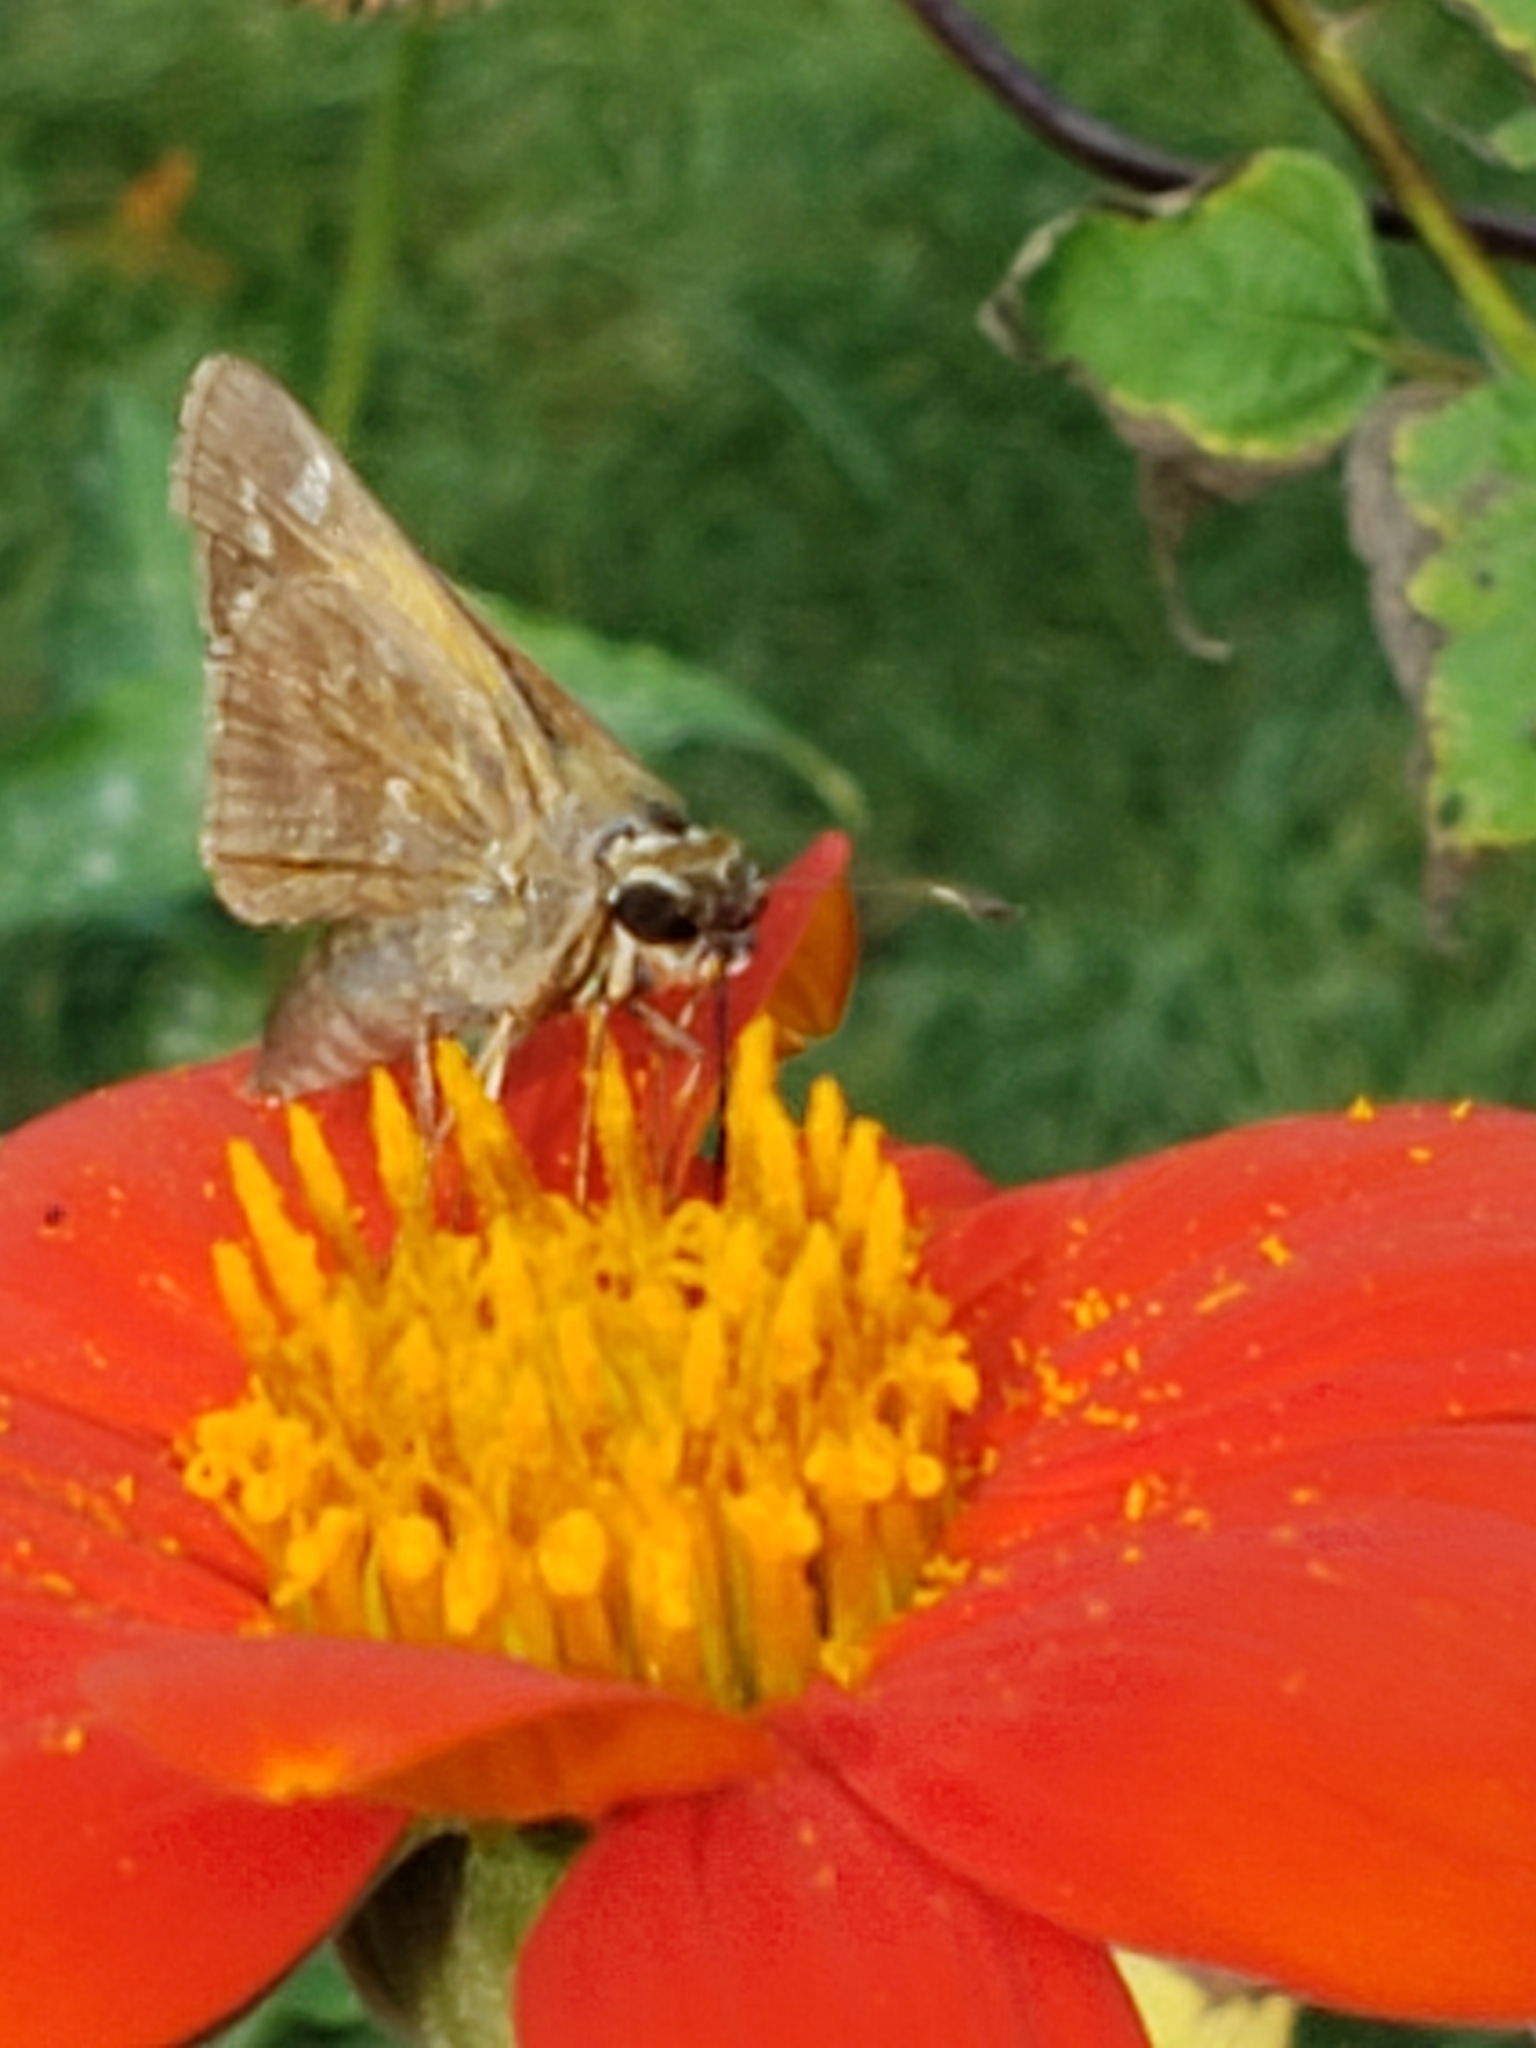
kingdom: Animalia
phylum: Arthropoda
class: Insecta
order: Lepidoptera
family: Hesperiidae
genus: Atalopedes
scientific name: Atalopedes
